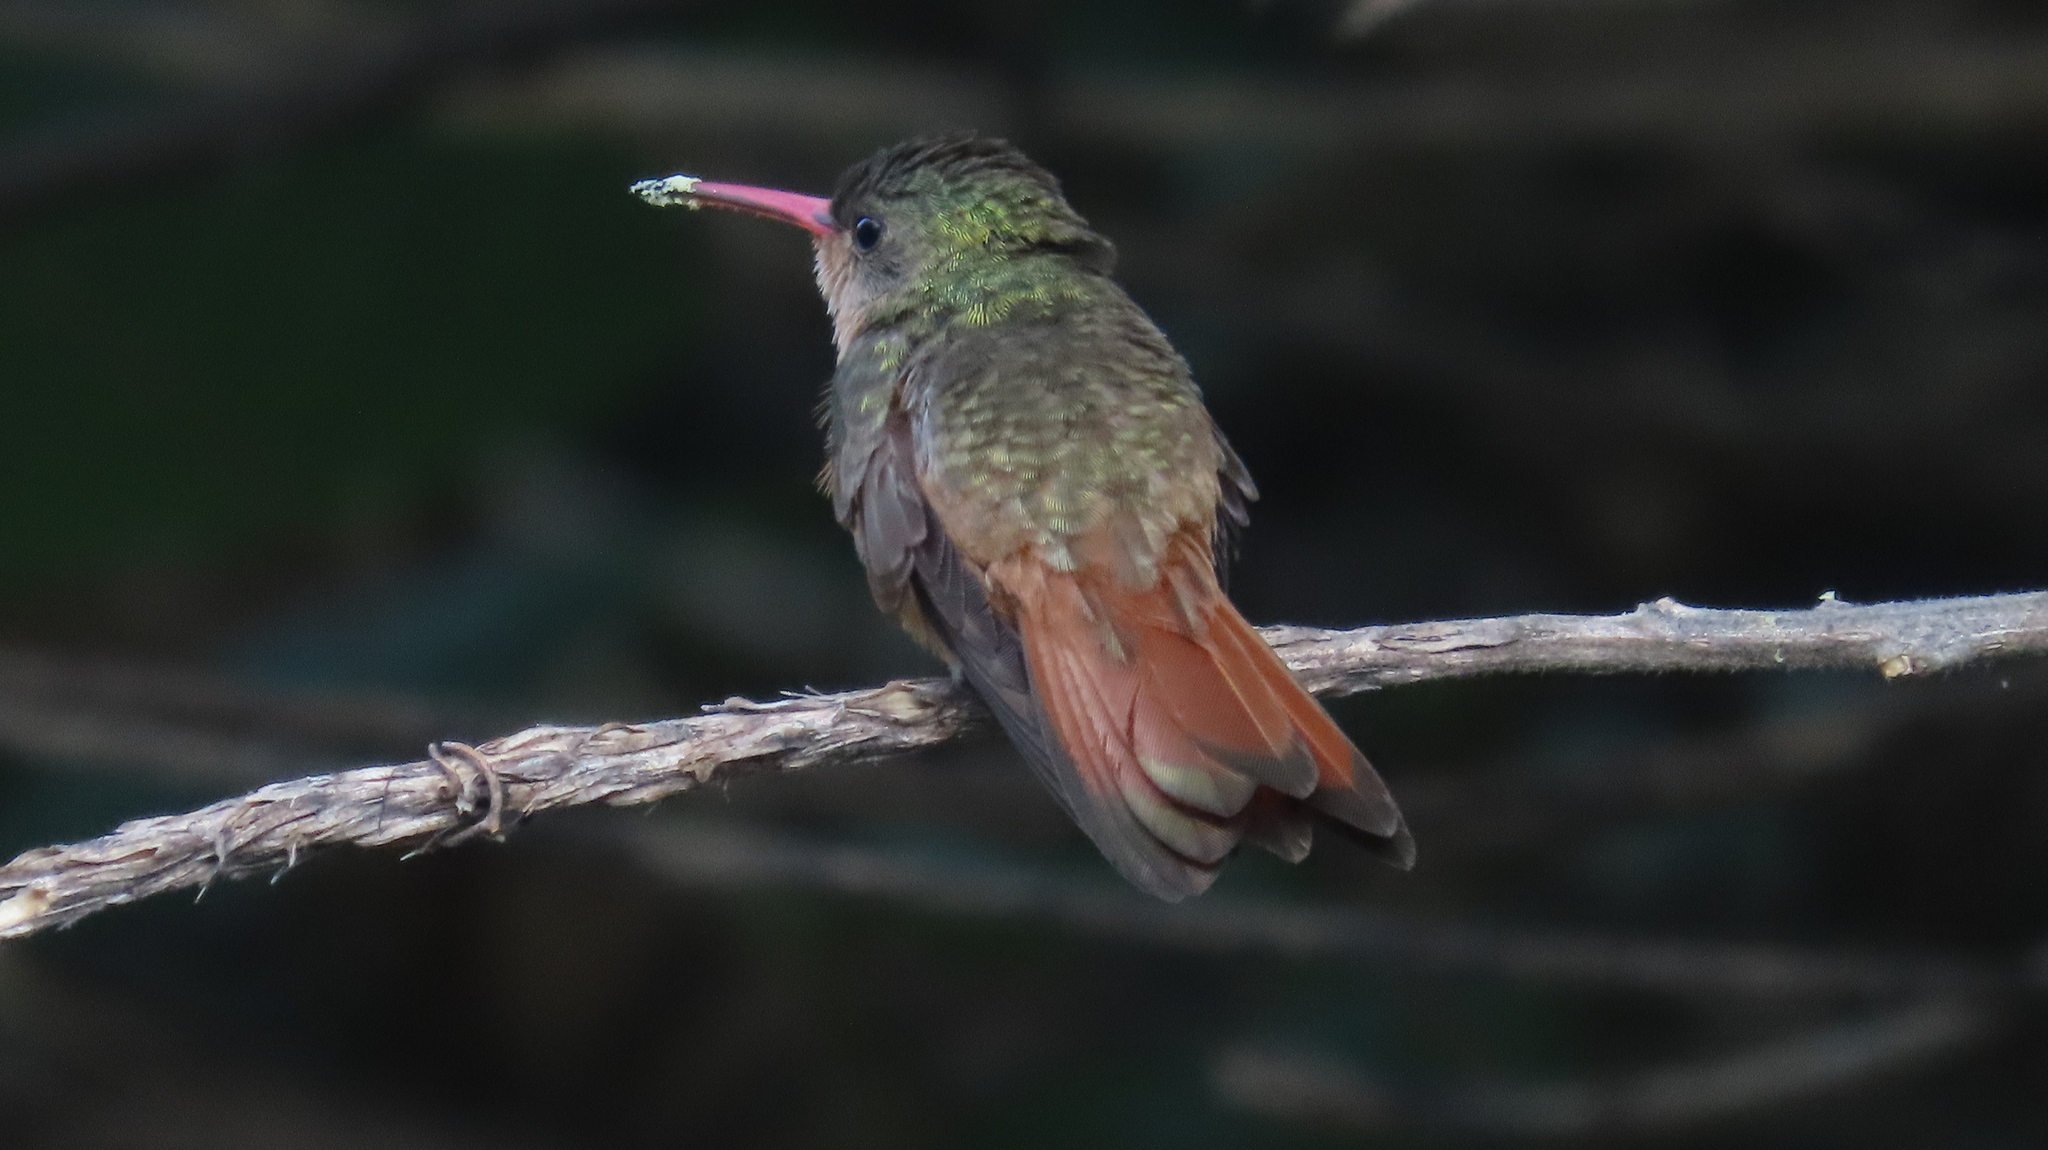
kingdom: Animalia
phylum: Chordata
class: Aves
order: Apodiformes
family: Trochilidae
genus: Amazilia
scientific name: Amazilia rutila
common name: Cinnamon hummingbird
